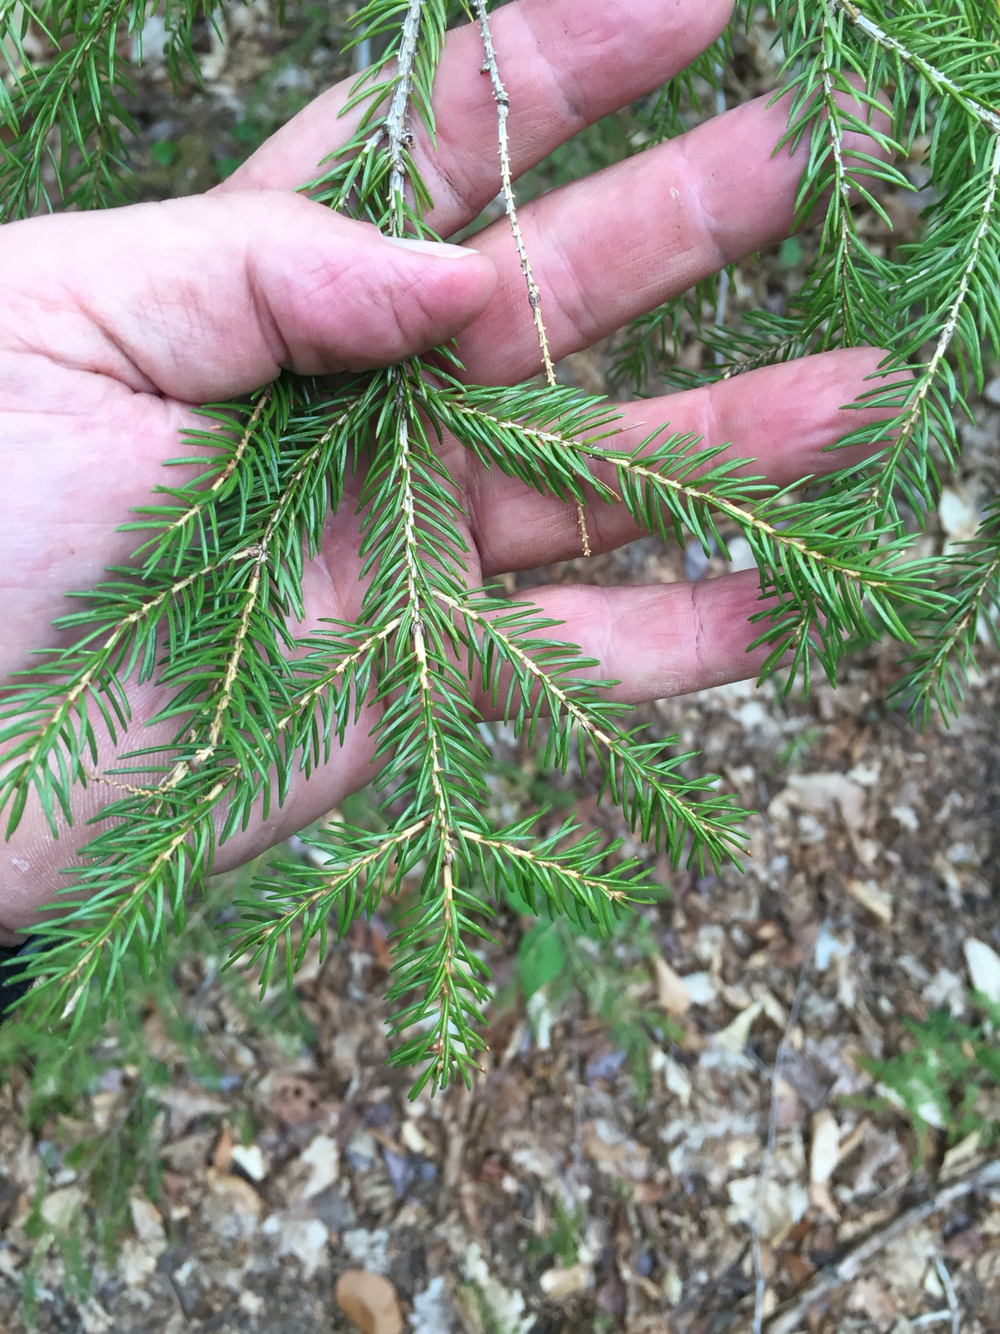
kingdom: Plantae
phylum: Tracheophyta
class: Pinopsida
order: Pinales
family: Pinaceae
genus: Picea
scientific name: Picea rubens
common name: Red spruce
